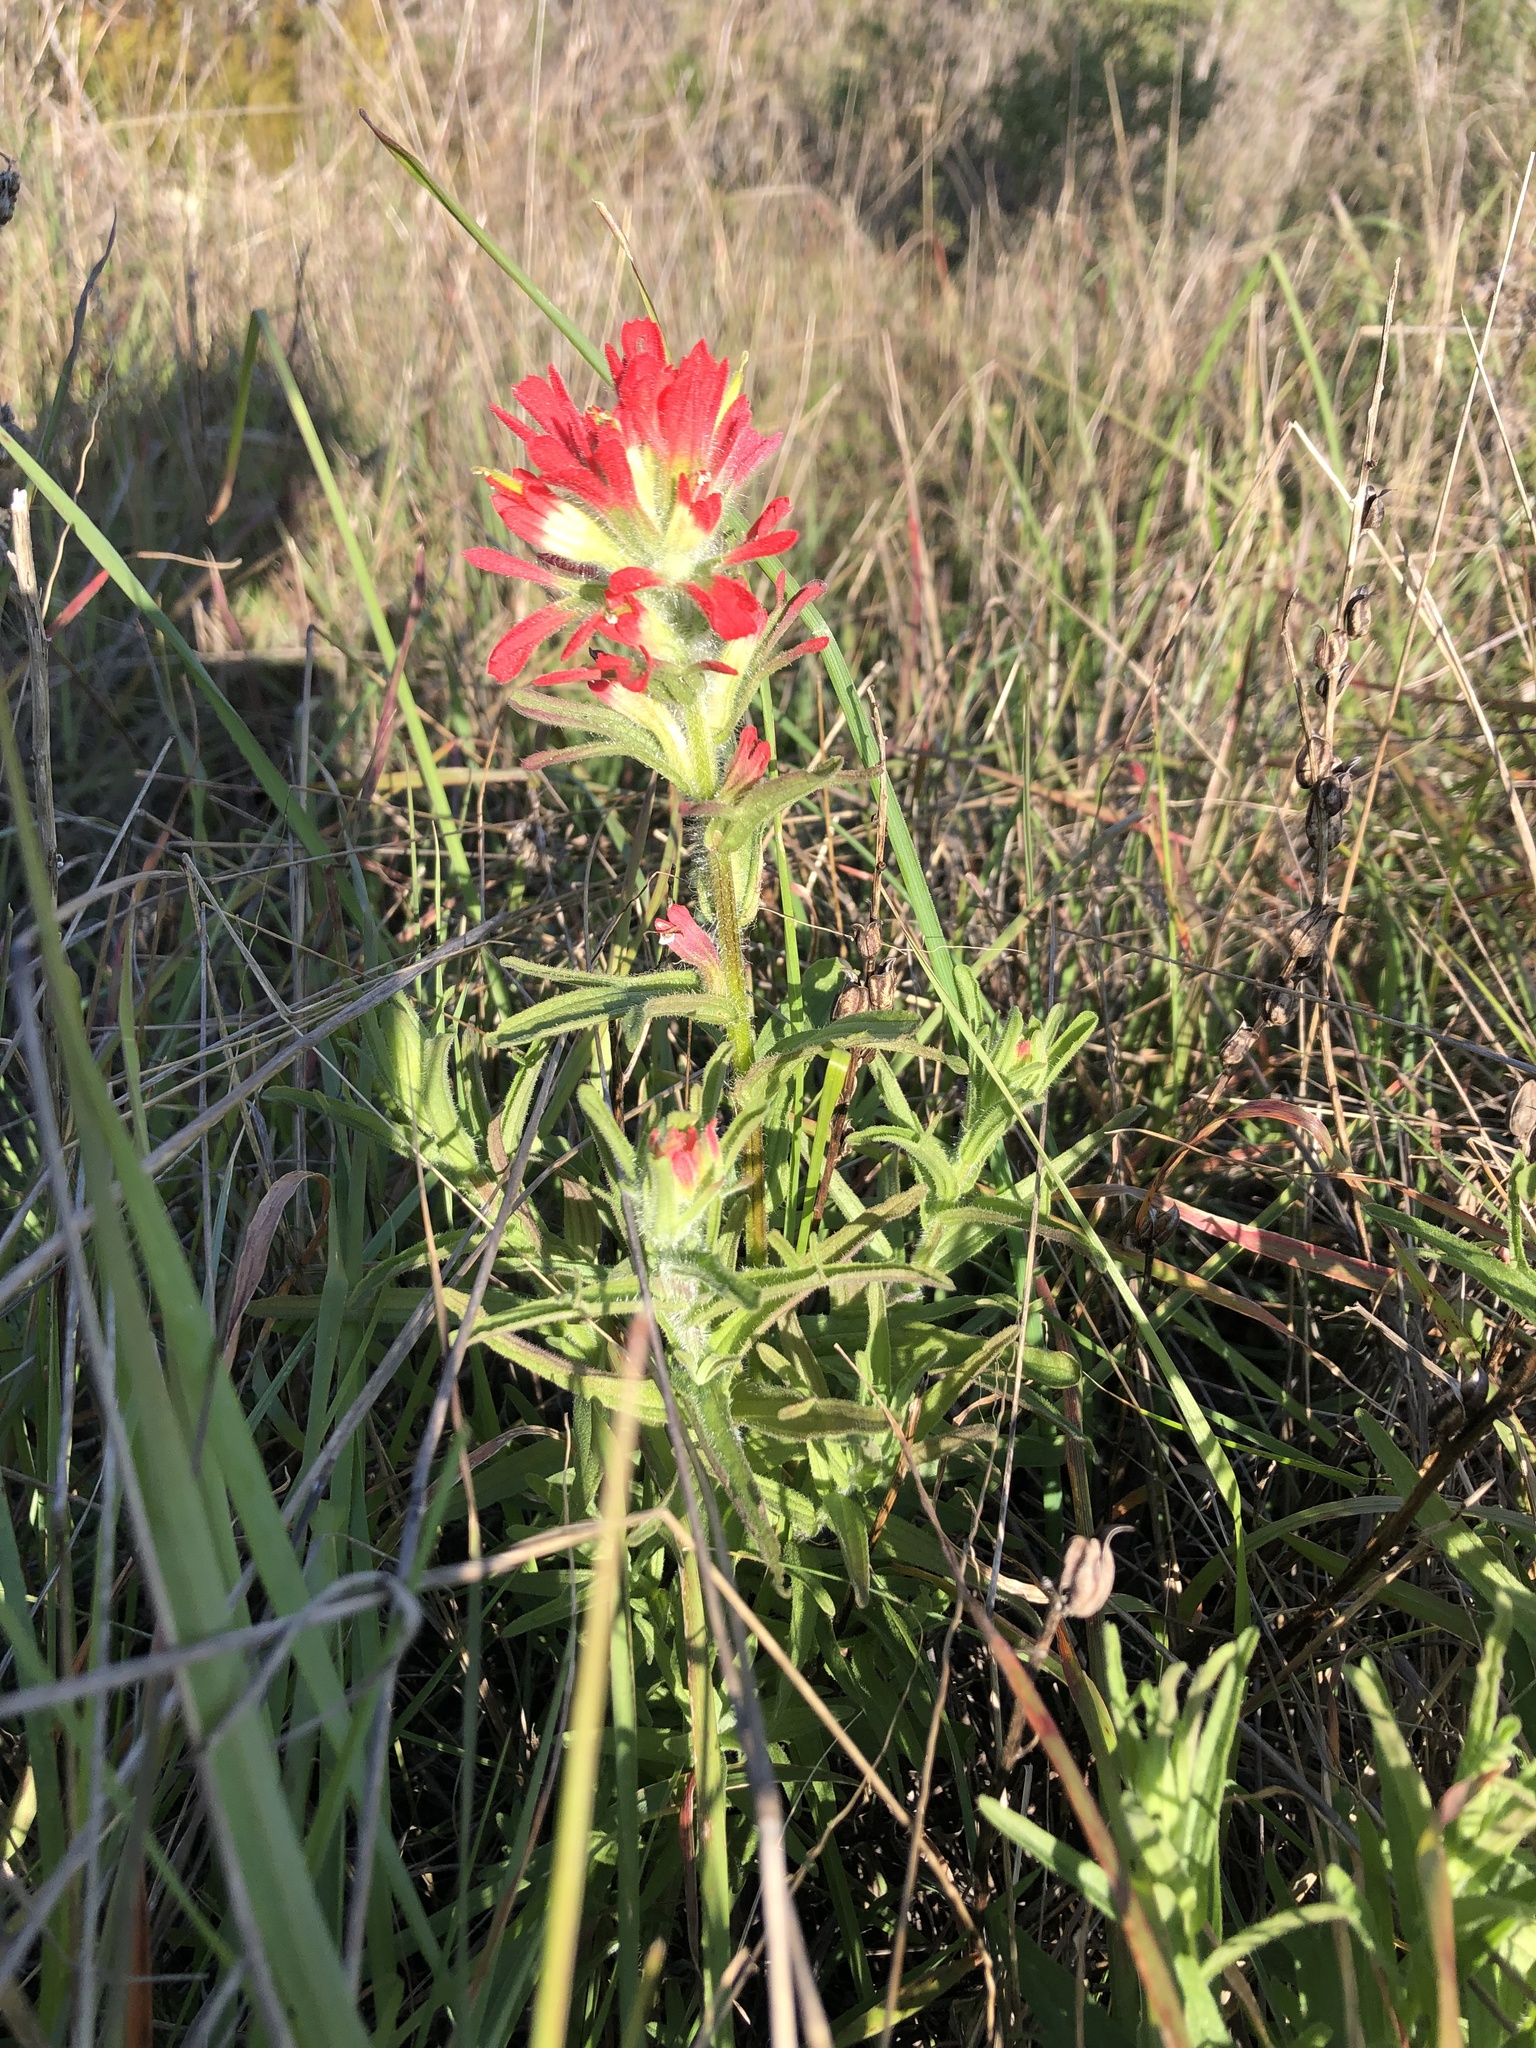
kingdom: Plantae
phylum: Tracheophyta
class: Magnoliopsida
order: Lamiales
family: Orobanchaceae
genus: Castilleja
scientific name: Castilleja affinis
